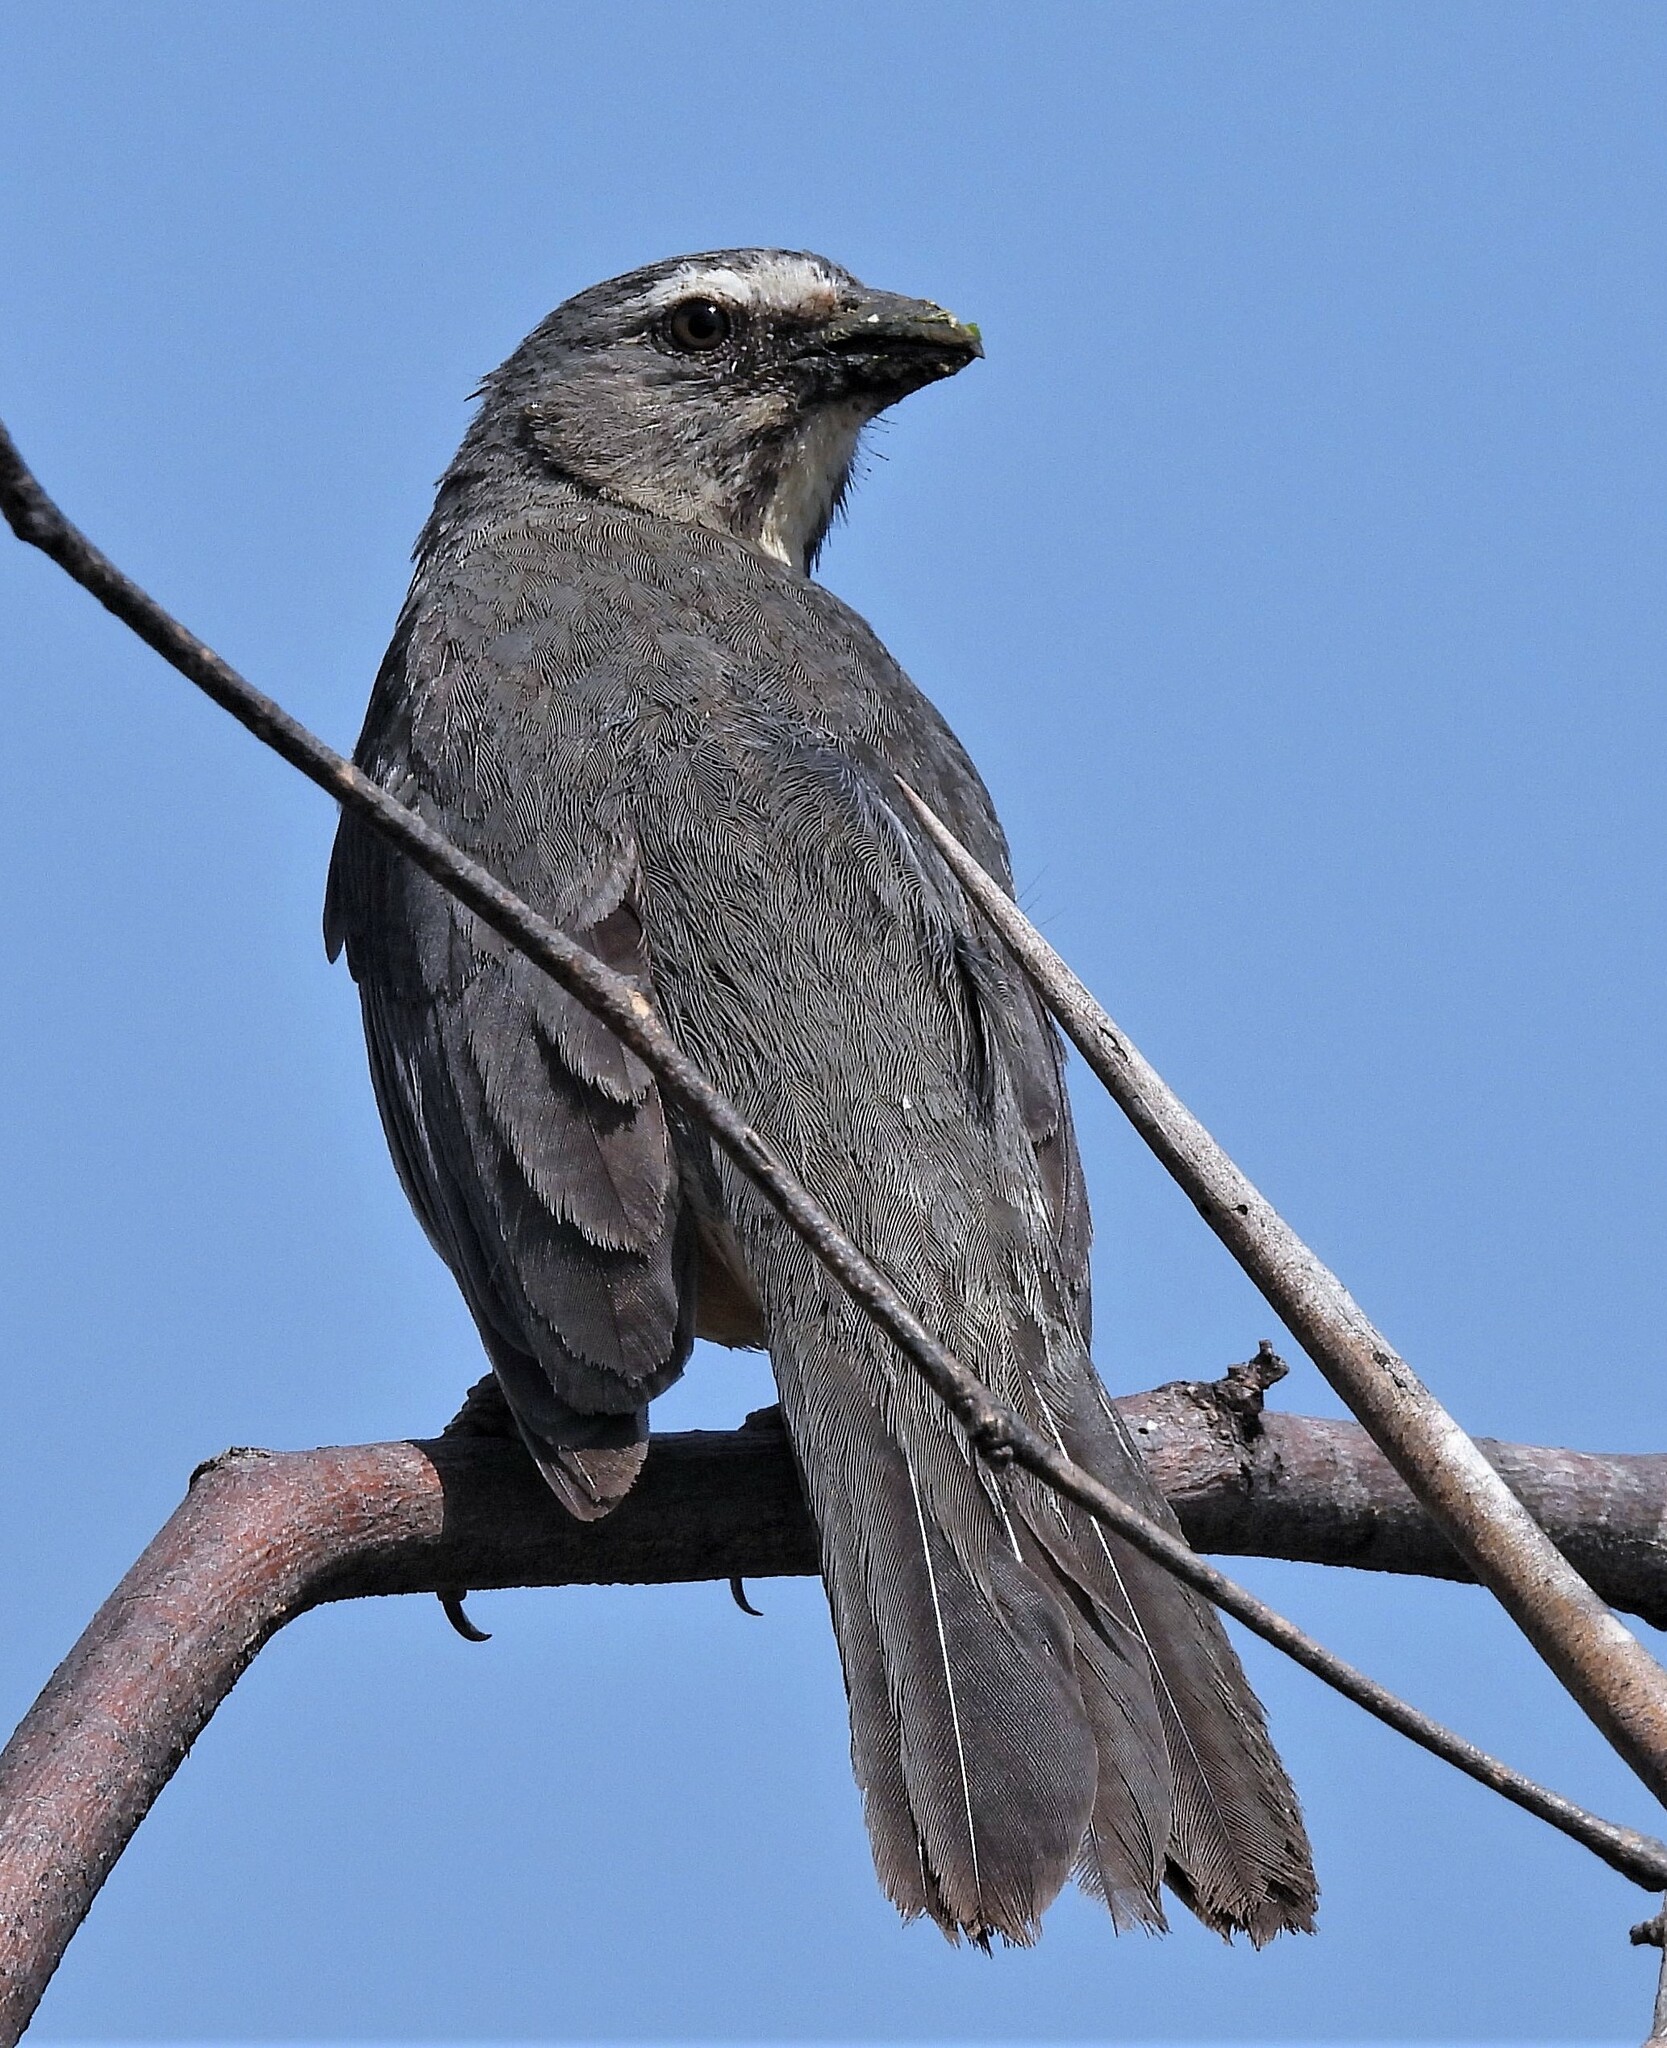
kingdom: Animalia
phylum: Chordata
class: Aves
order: Passeriformes
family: Thraupidae
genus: Saltator
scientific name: Saltator coerulescens
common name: Grayish saltator
